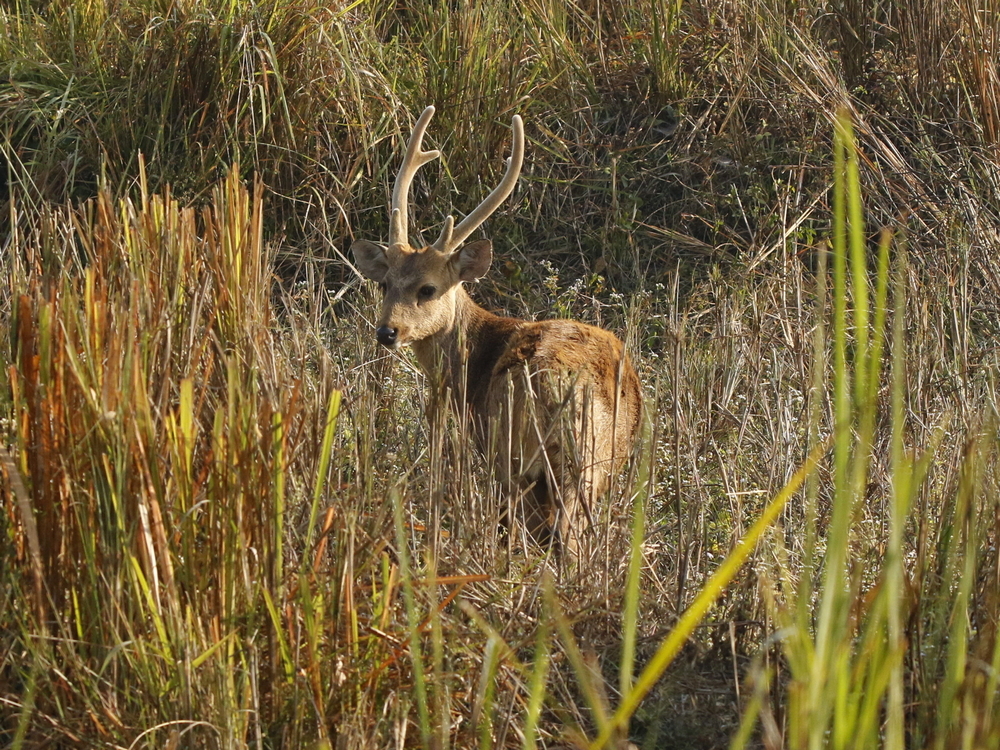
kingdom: Animalia
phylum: Chordata
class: Mammalia
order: Artiodactyla
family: Cervidae
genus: Axis
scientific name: Axis porcinus
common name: Hog deer
